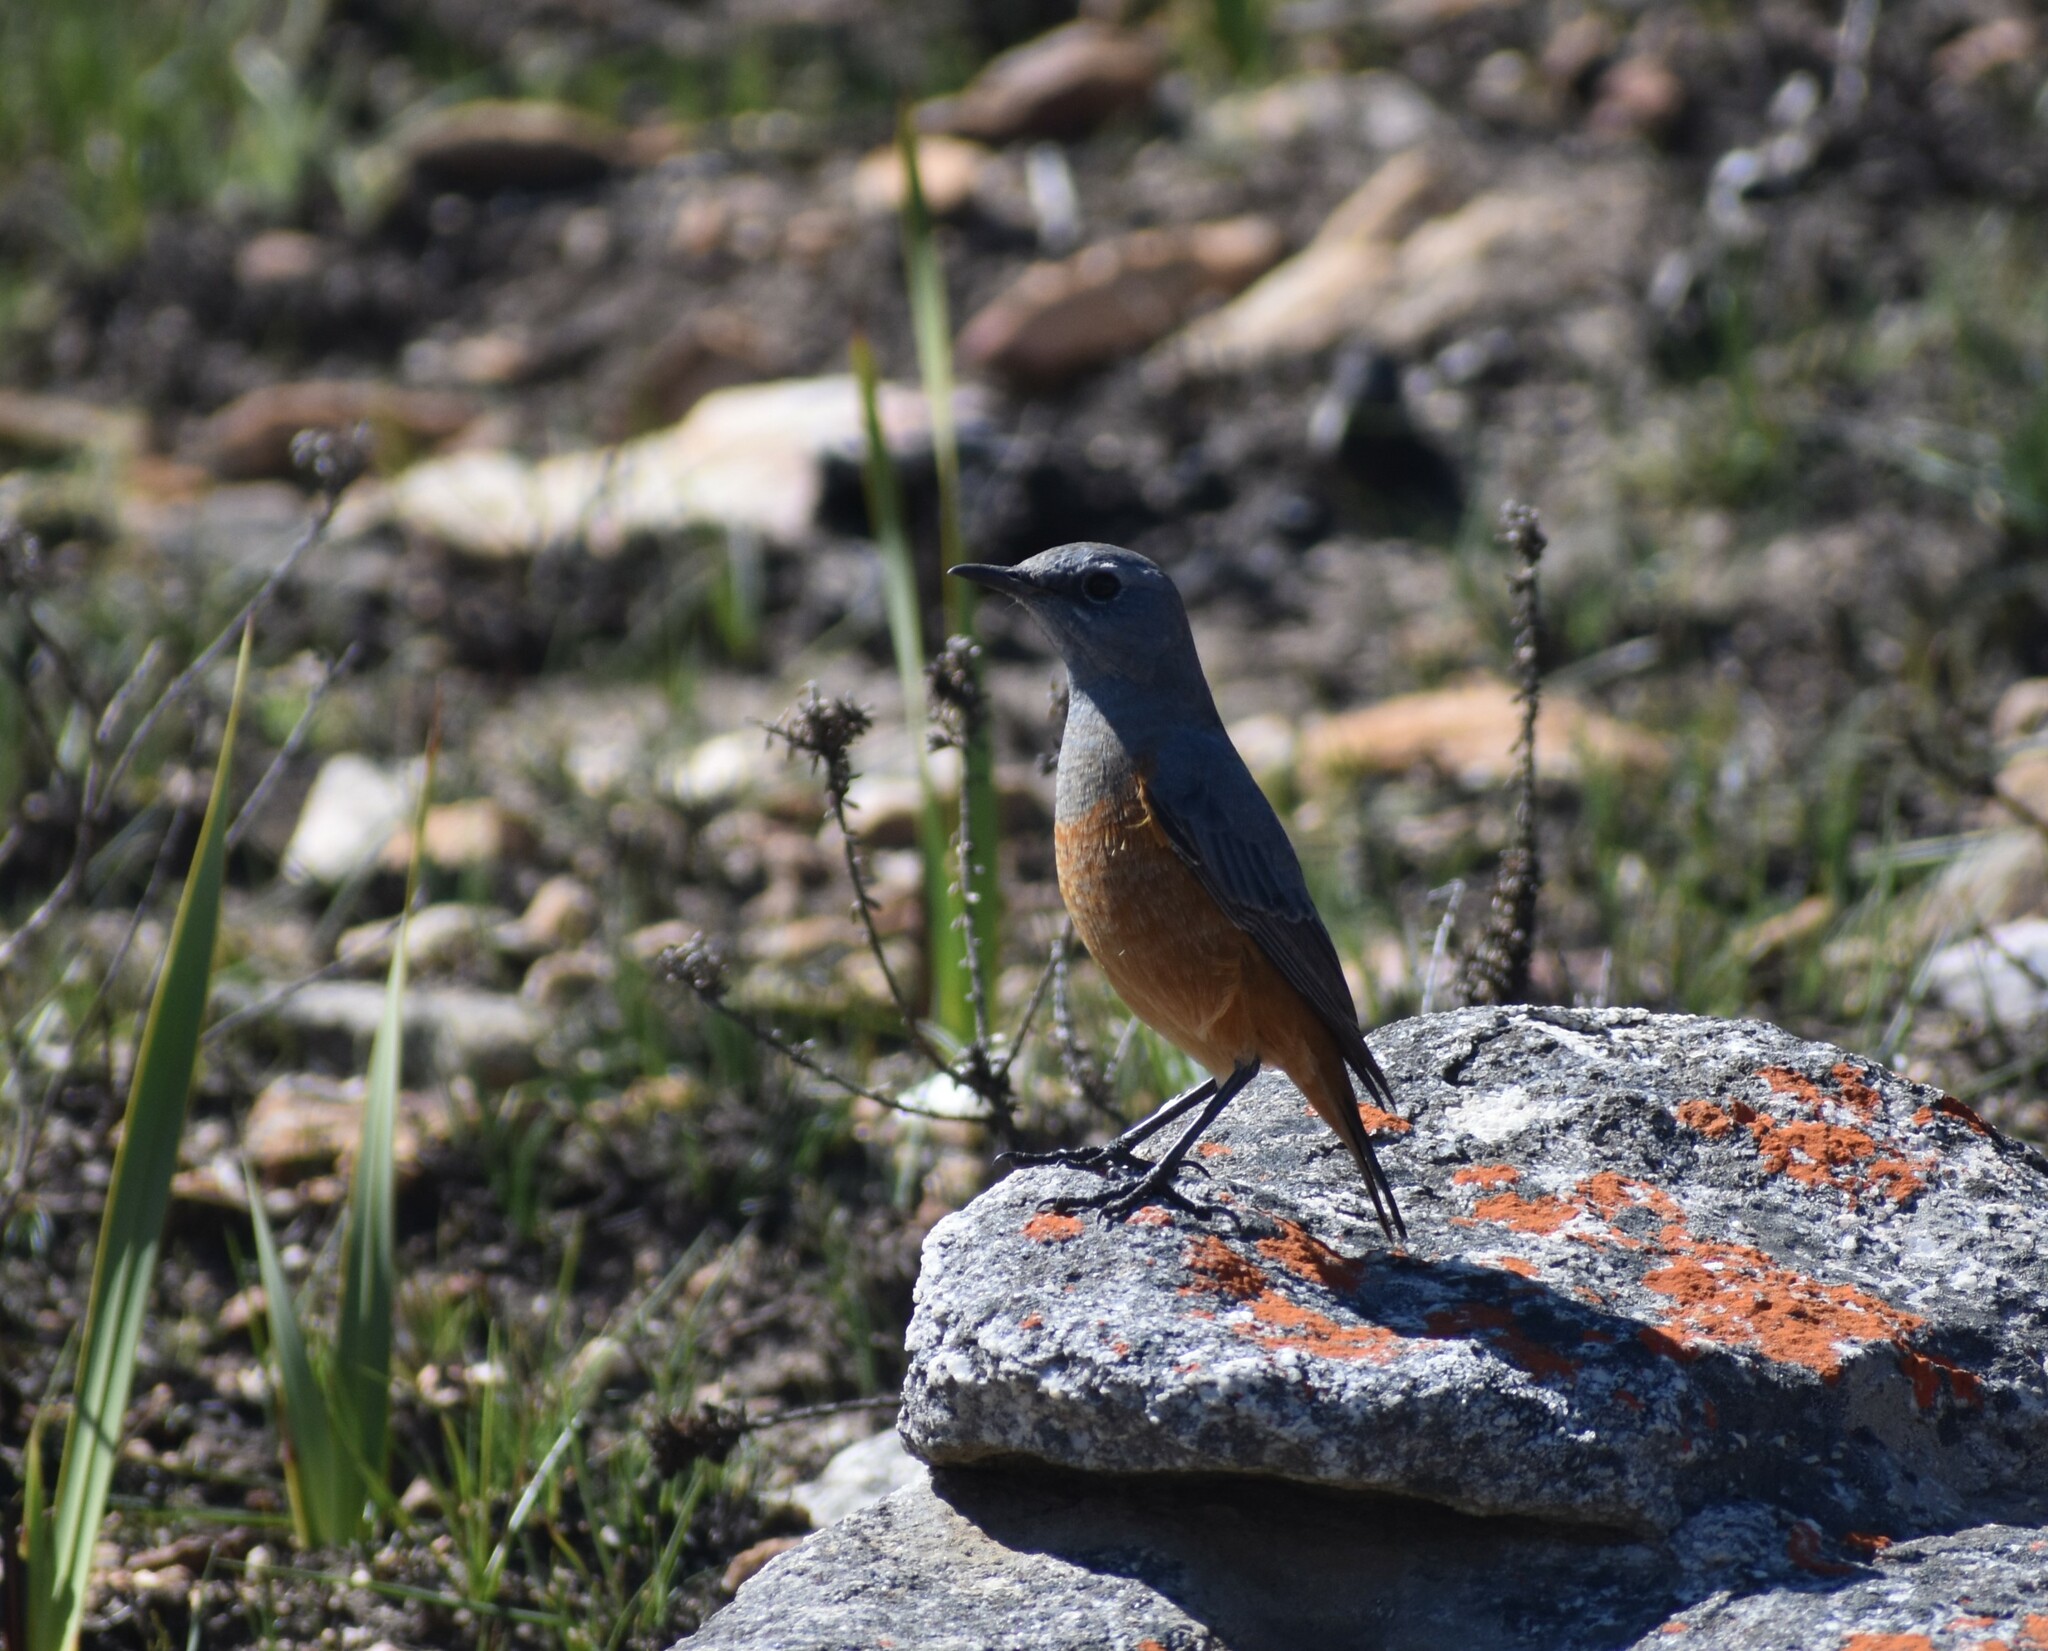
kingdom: Animalia
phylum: Chordata
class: Aves
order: Passeriformes
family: Muscicapidae
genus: Monticola
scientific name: Monticola explorator
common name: Sentinel rock thrush
